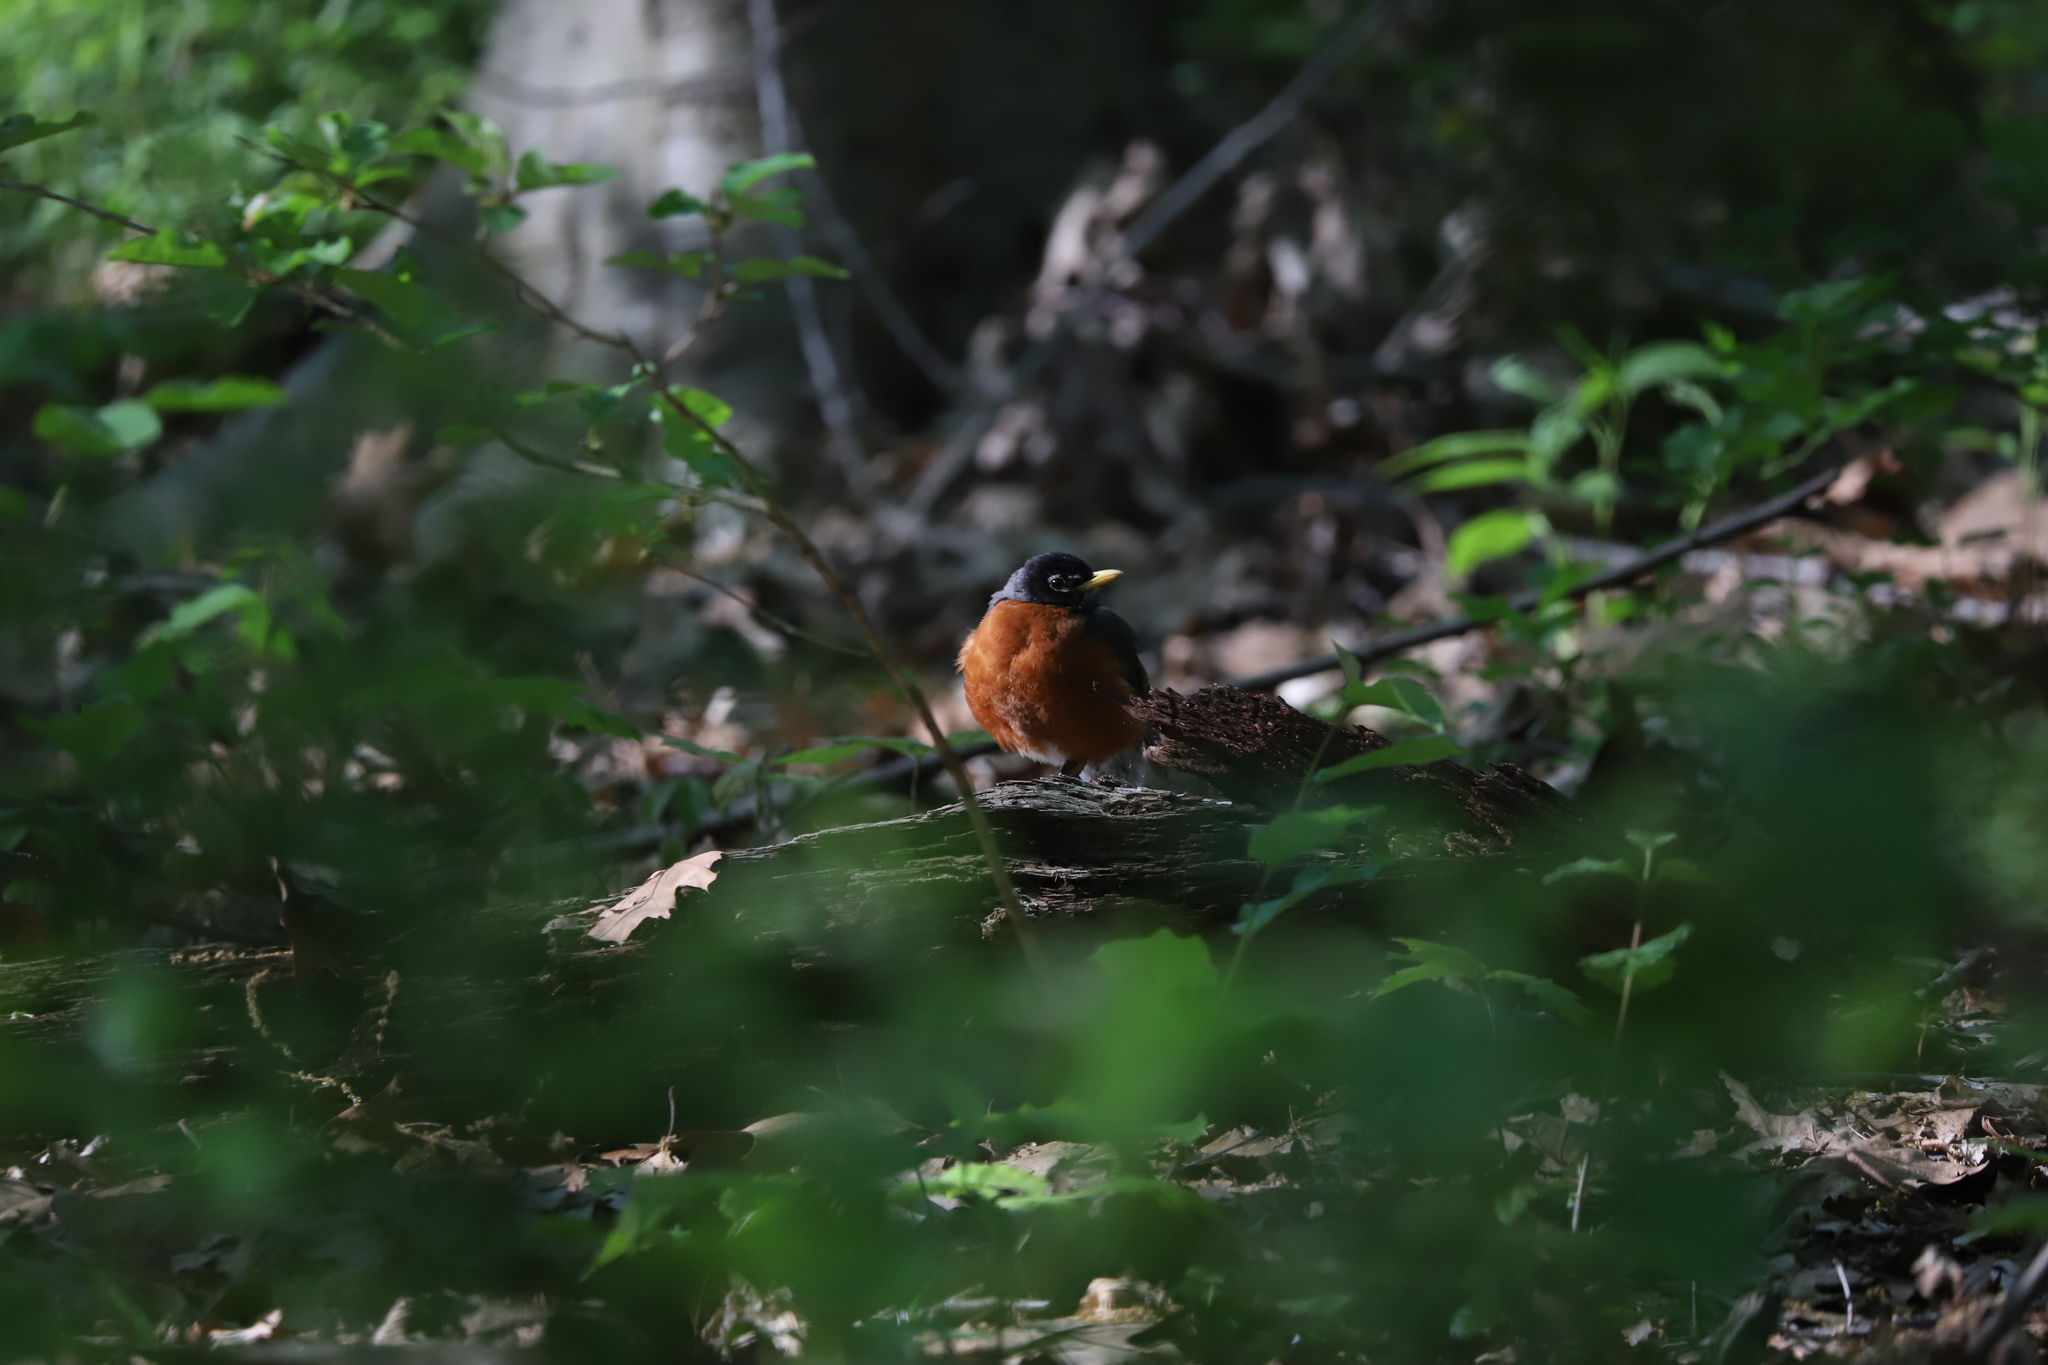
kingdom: Animalia
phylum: Chordata
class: Aves
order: Passeriformes
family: Turdidae
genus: Turdus
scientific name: Turdus migratorius
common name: American robin
